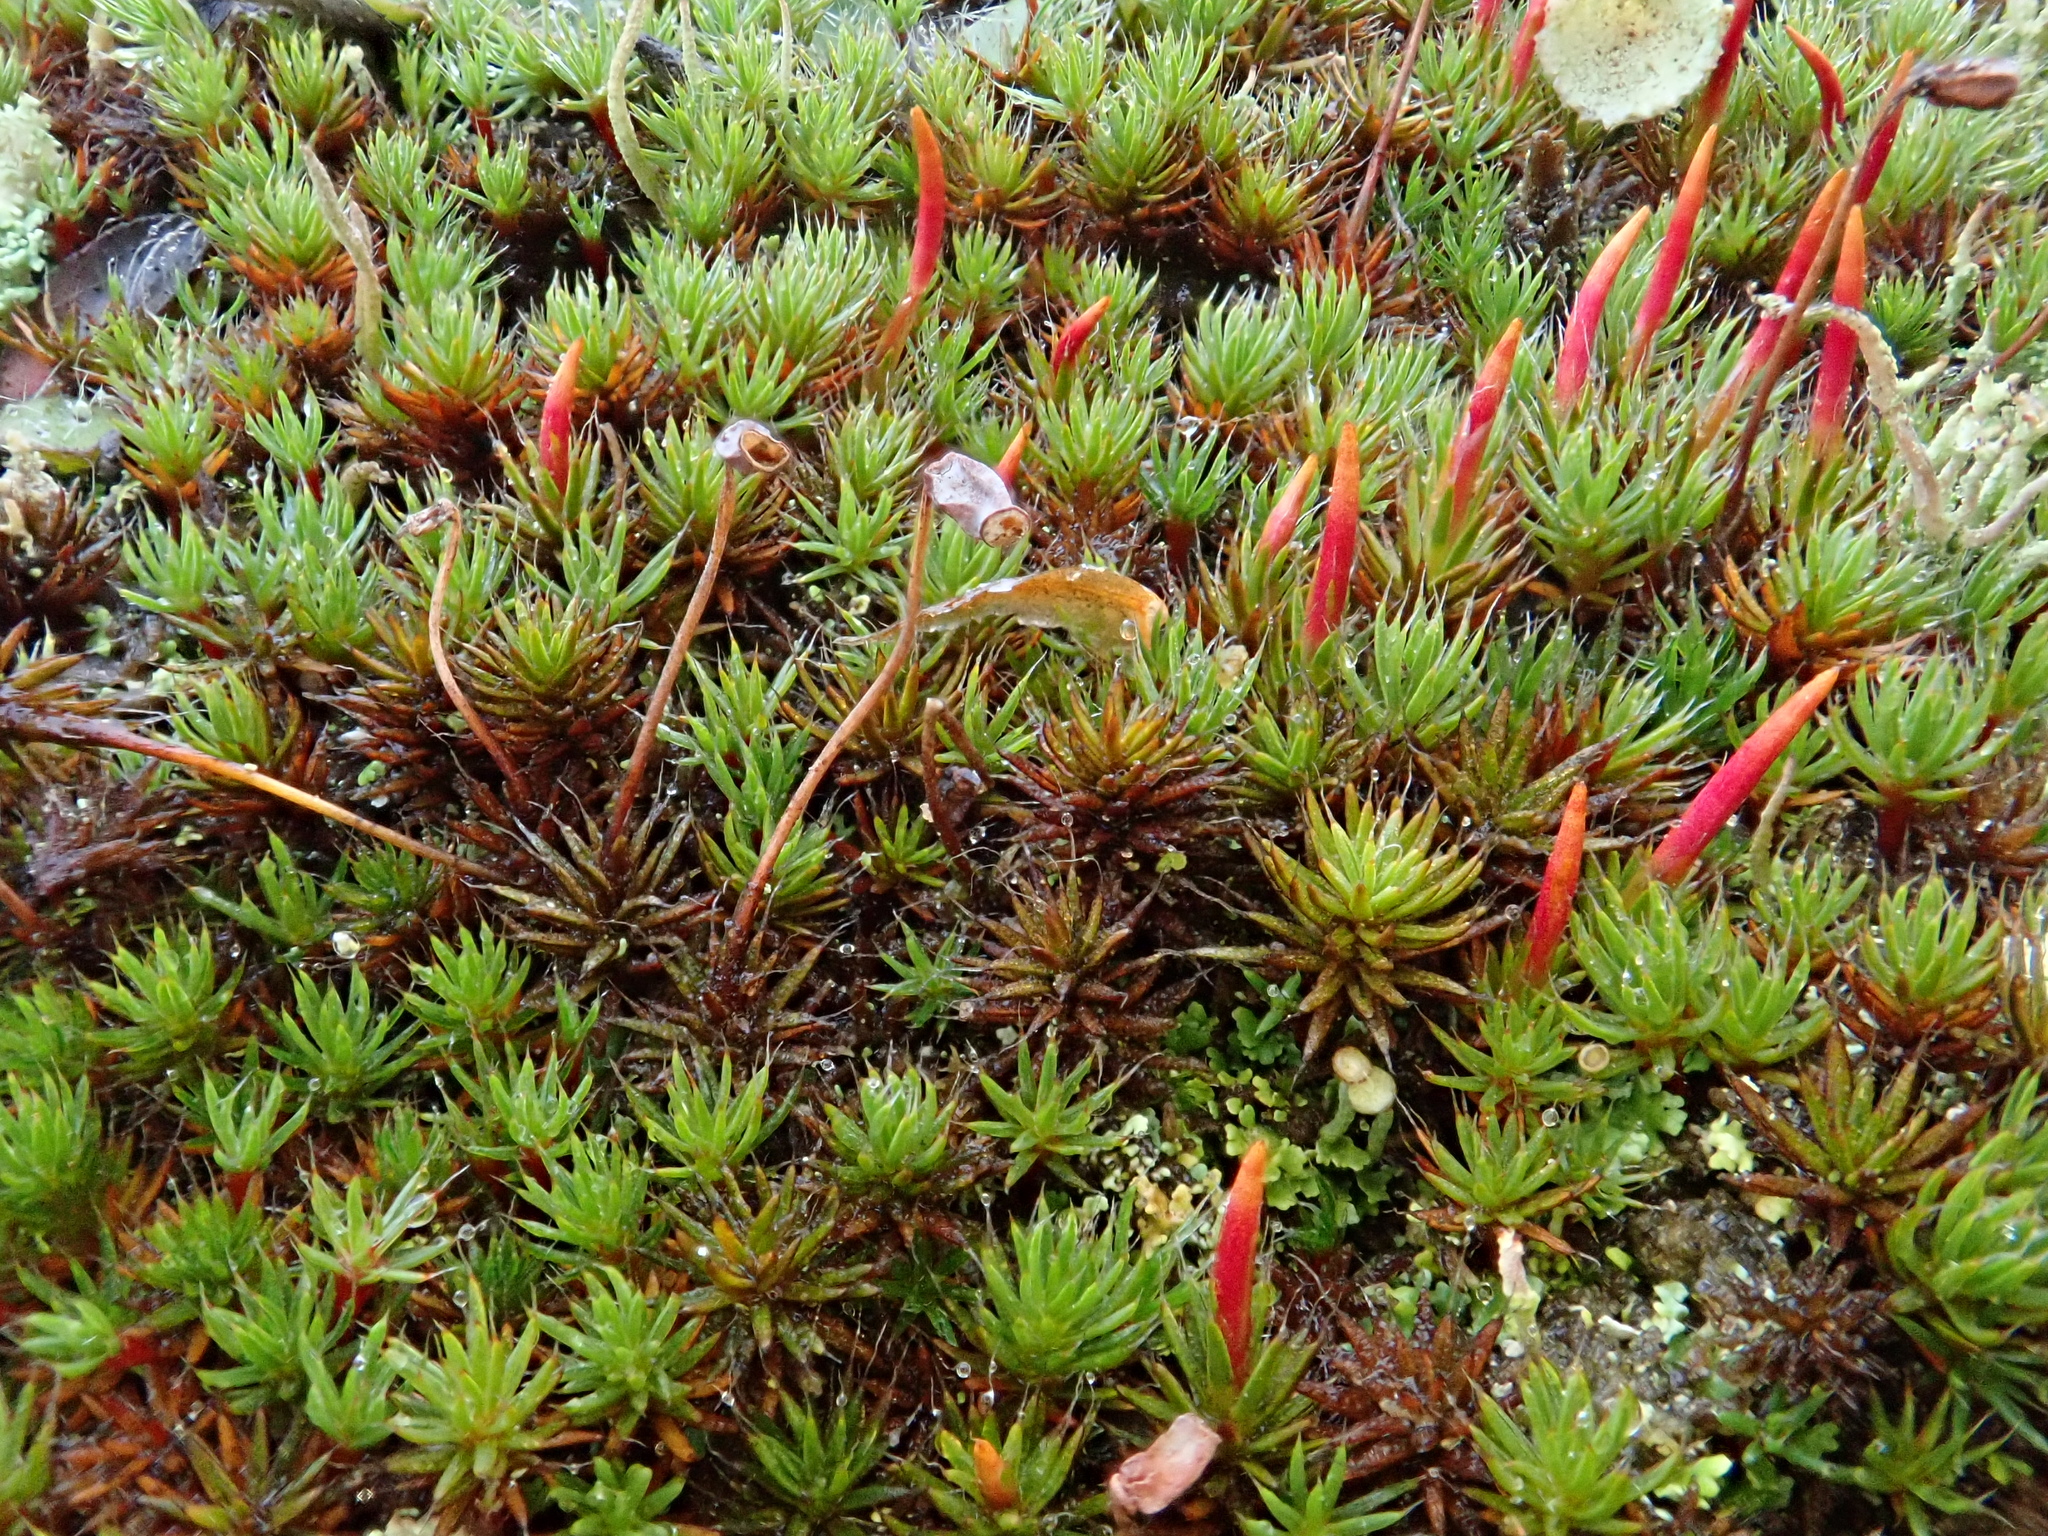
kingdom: Plantae
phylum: Bryophyta
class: Polytrichopsida
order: Polytrichales
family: Polytrichaceae
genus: Polytrichum
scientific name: Polytrichum piliferum
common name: Bristly haircap
